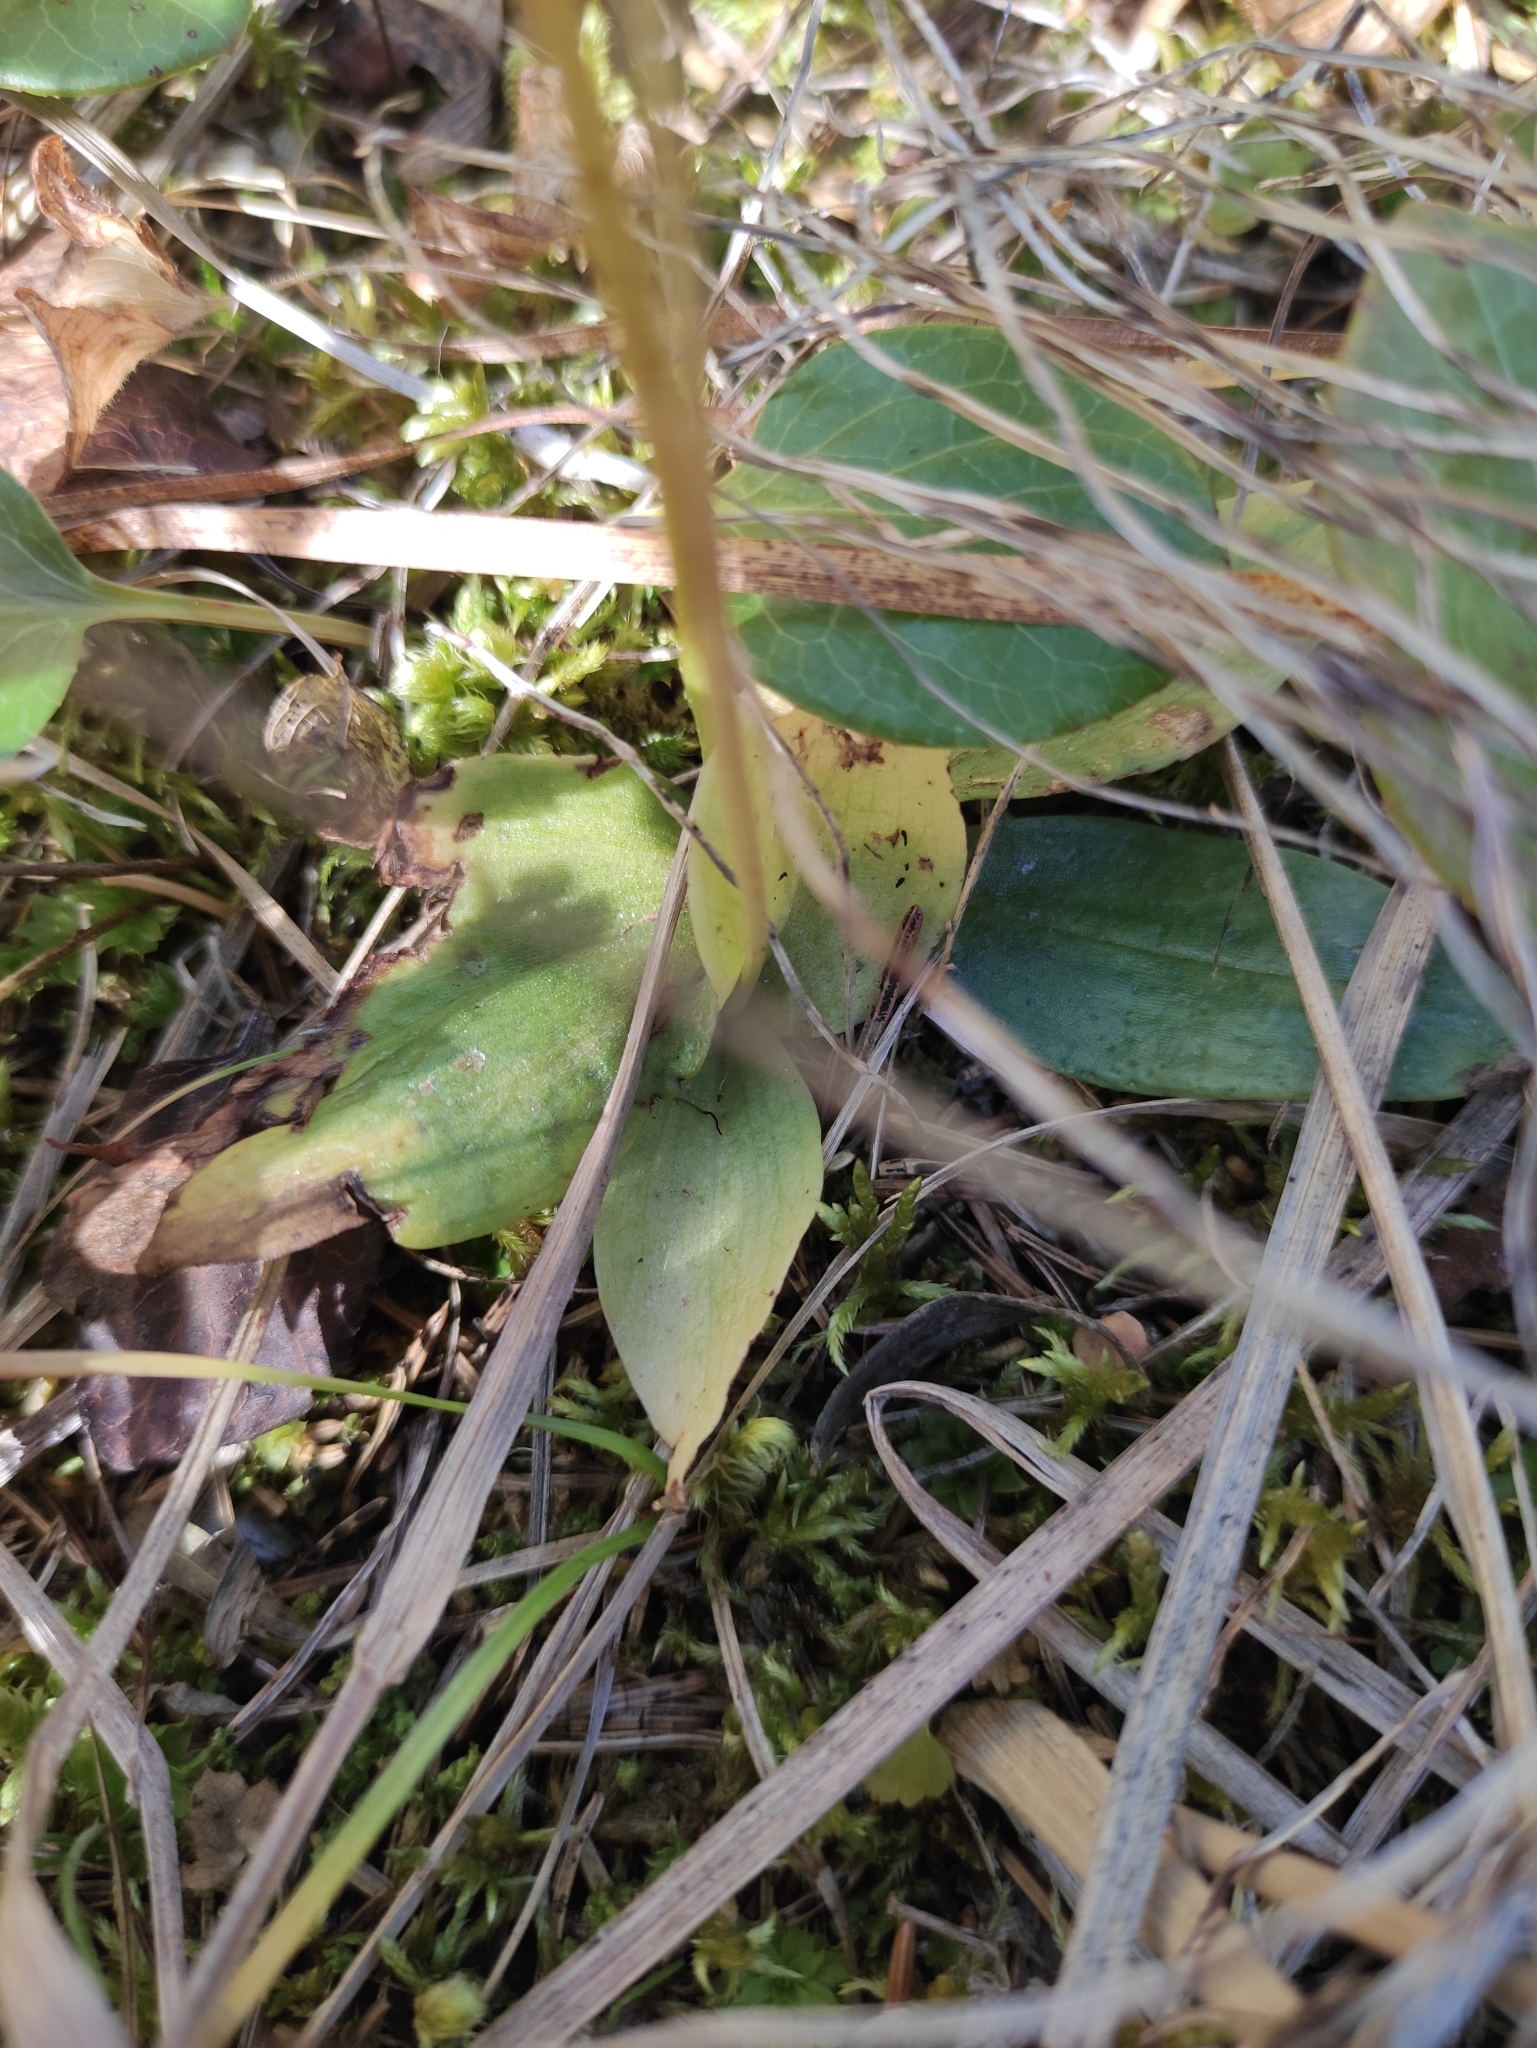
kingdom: Plantae
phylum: Tracheophyta
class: Liliopsida
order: Asparagales
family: Orchidaceae
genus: Hemipilia
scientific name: Hemipilia cucullata
